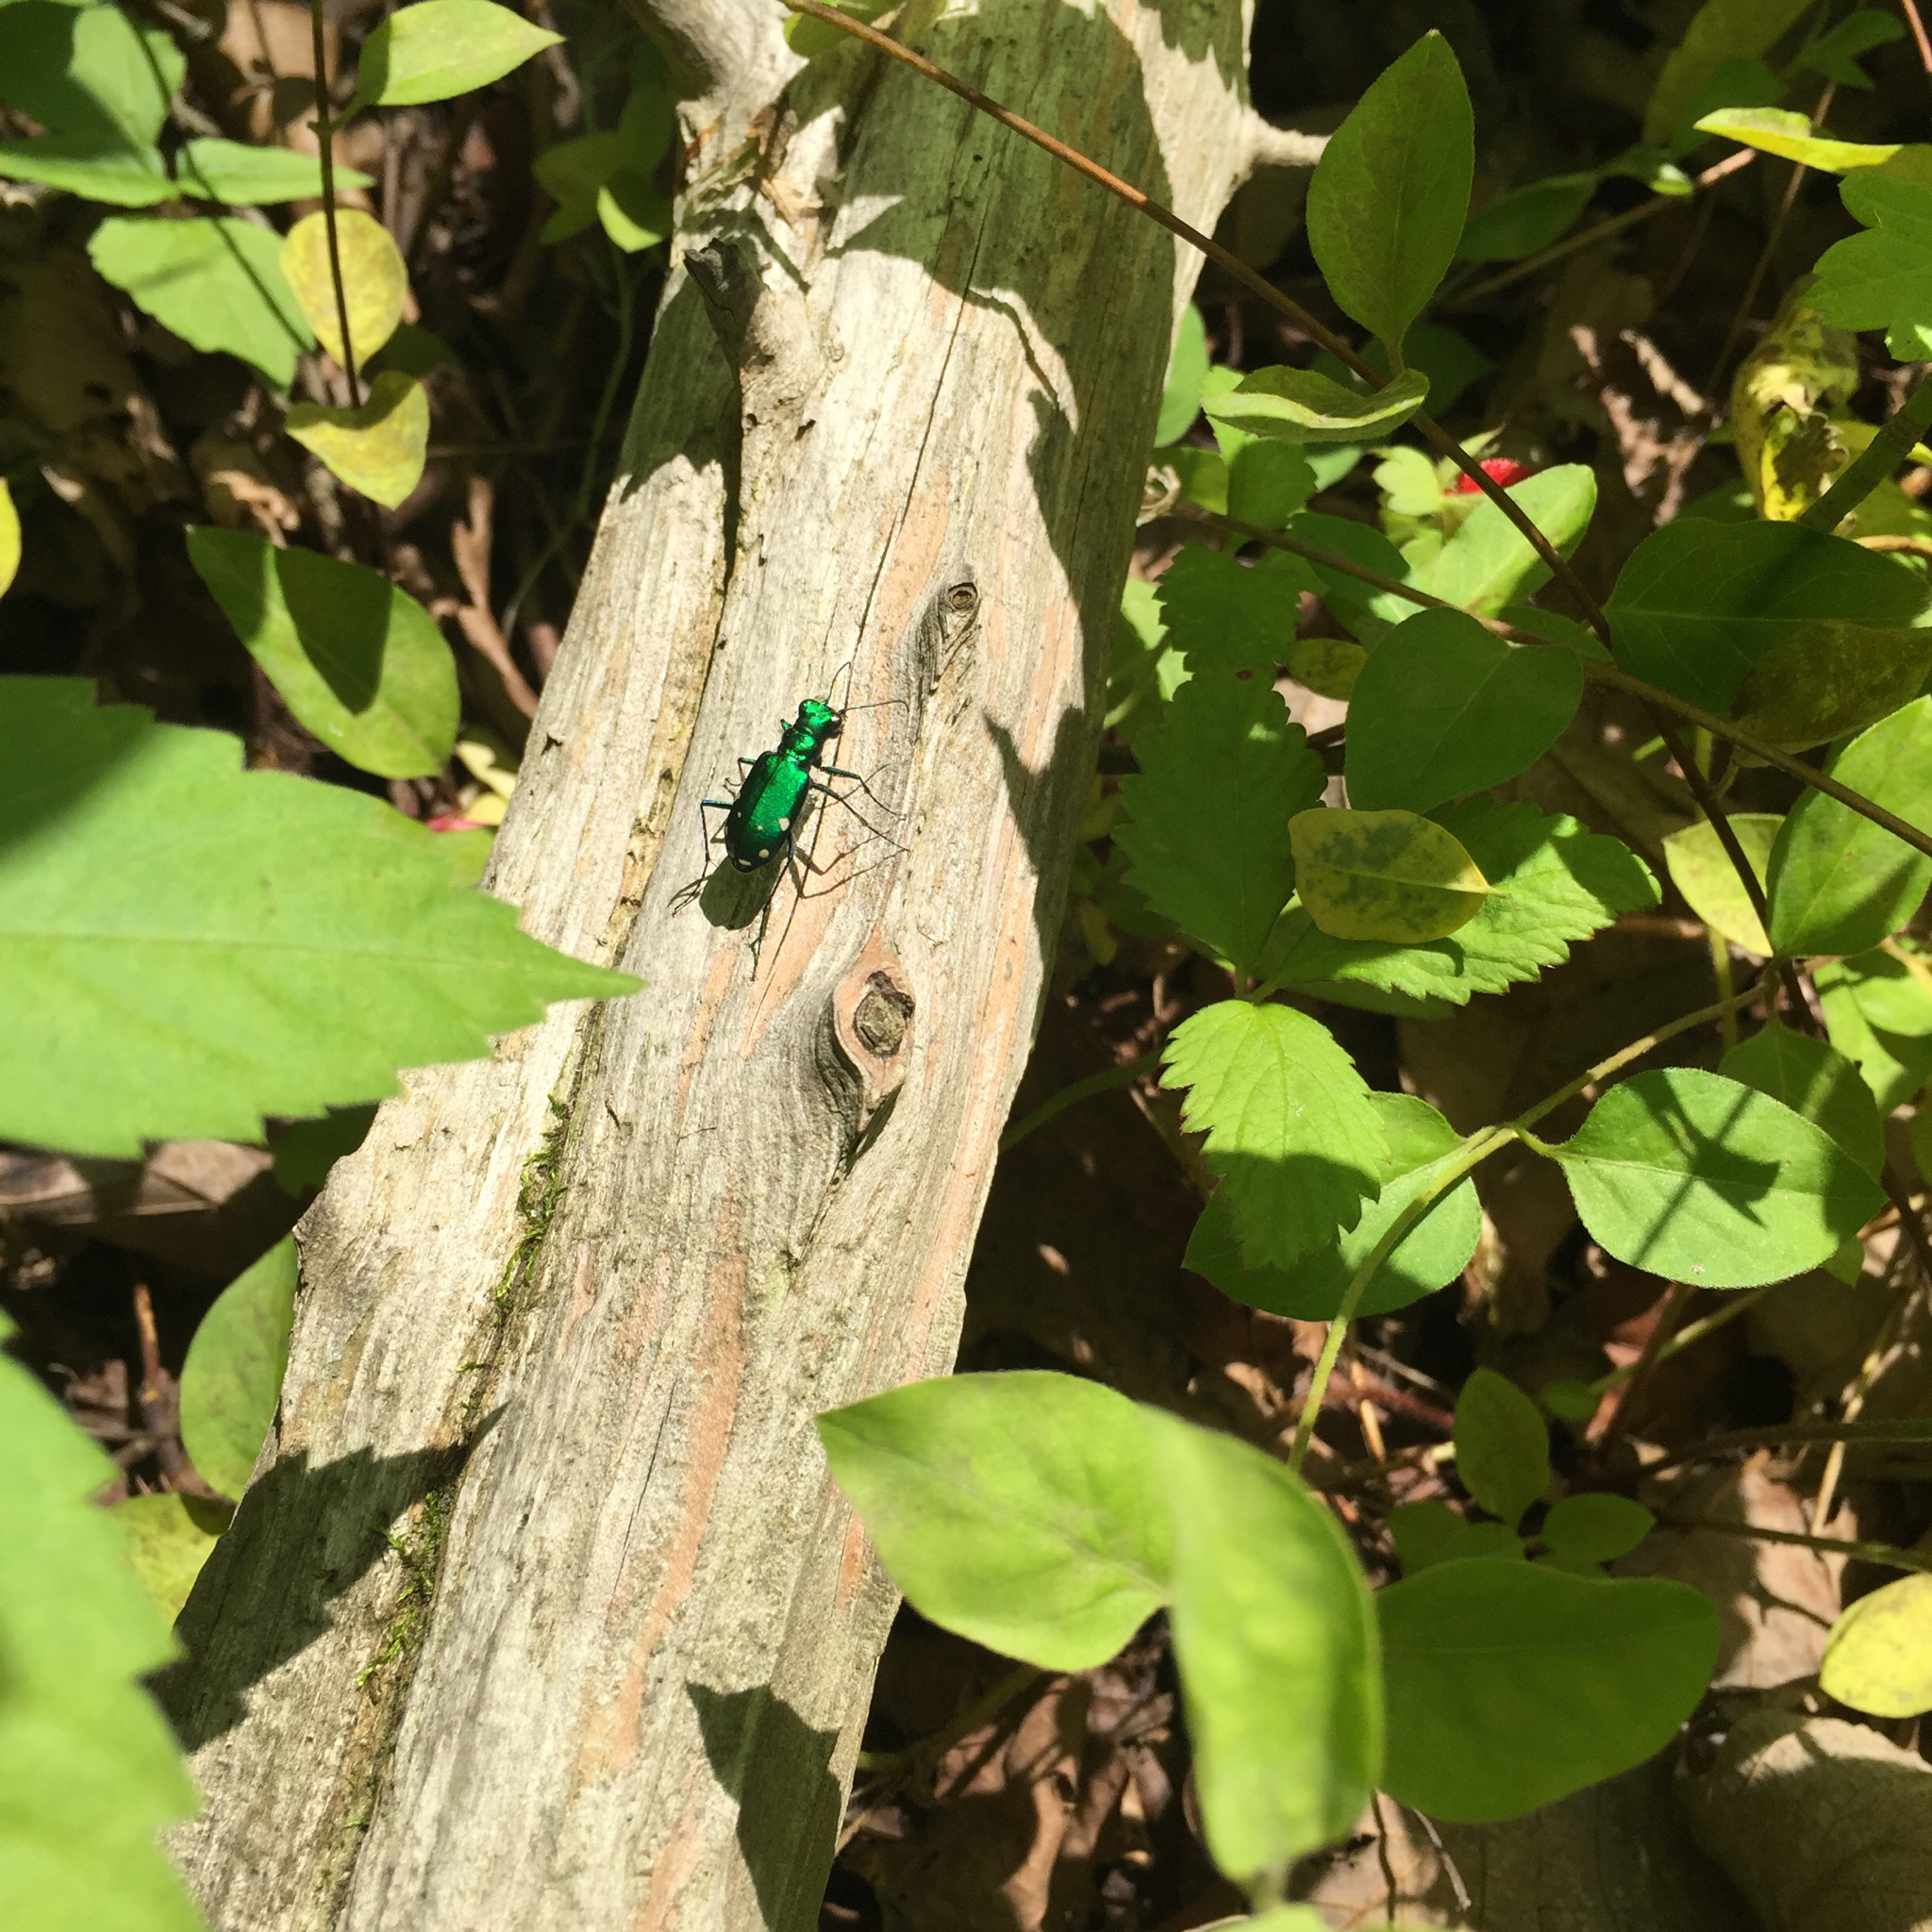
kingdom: Animalia
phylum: Arthropoda
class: Insecta
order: Coleoptera
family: Carabidae
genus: Cicindela
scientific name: Cicindela sexguttata
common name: Six-spotted tiger beetle
